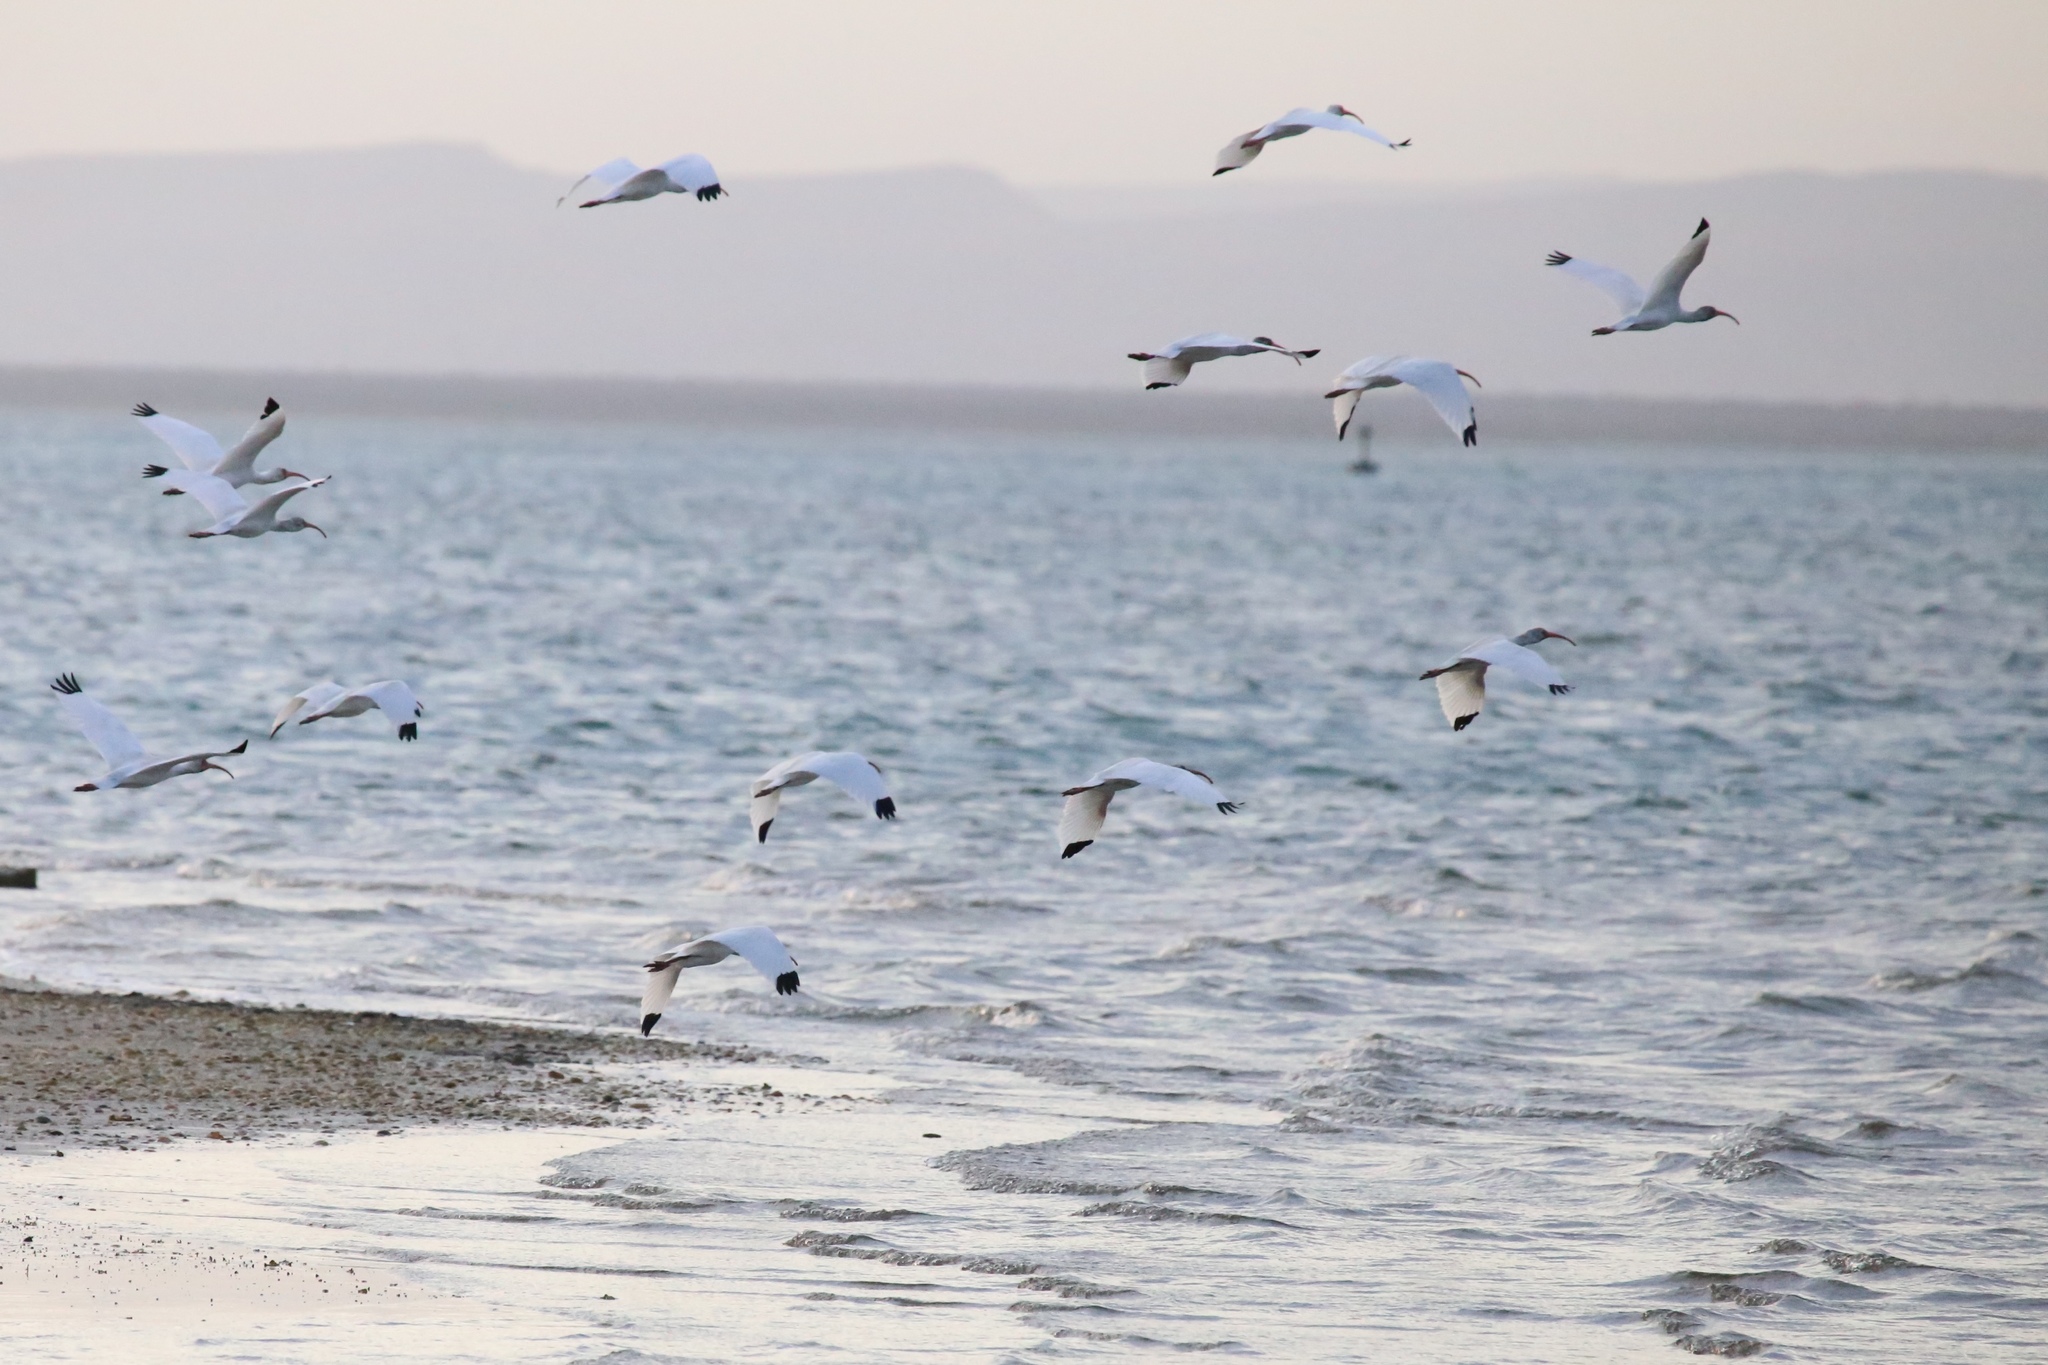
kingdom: Animalia
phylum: Chordata
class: Aves
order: Pelecaniformes
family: Threskiornithidae
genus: Eudocimus
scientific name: Eudocimus albus
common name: White ibis
